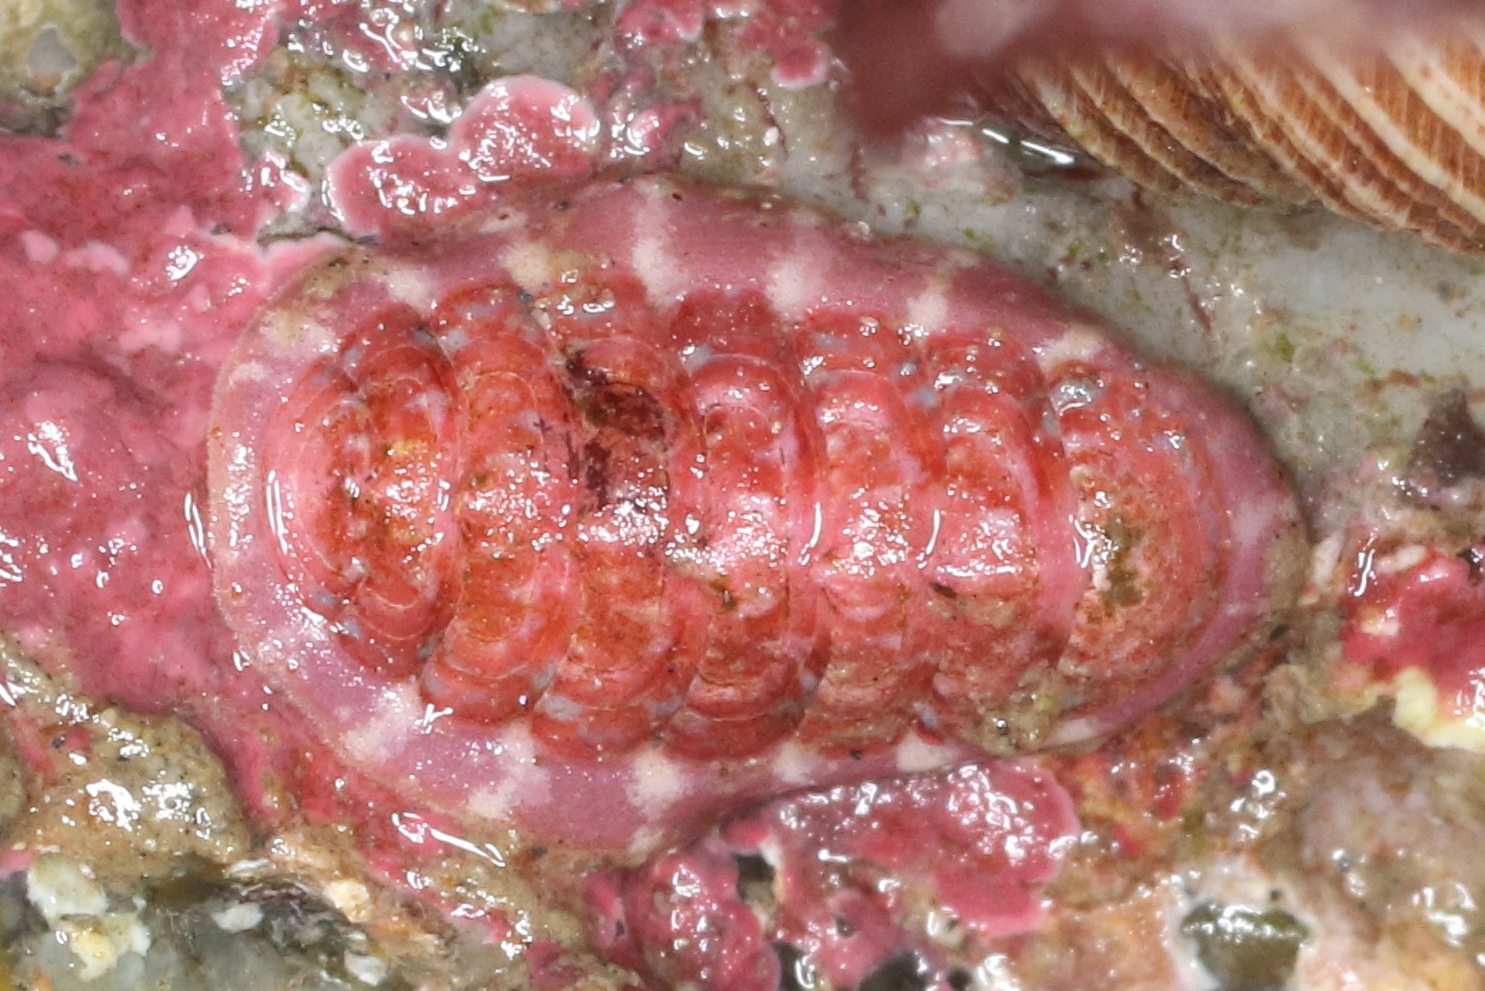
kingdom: Animalia
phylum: Mollusca
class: Polyplacophora
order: Chitonida
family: Tonicellidae
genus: Tonicella
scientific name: Tonicella venusta
